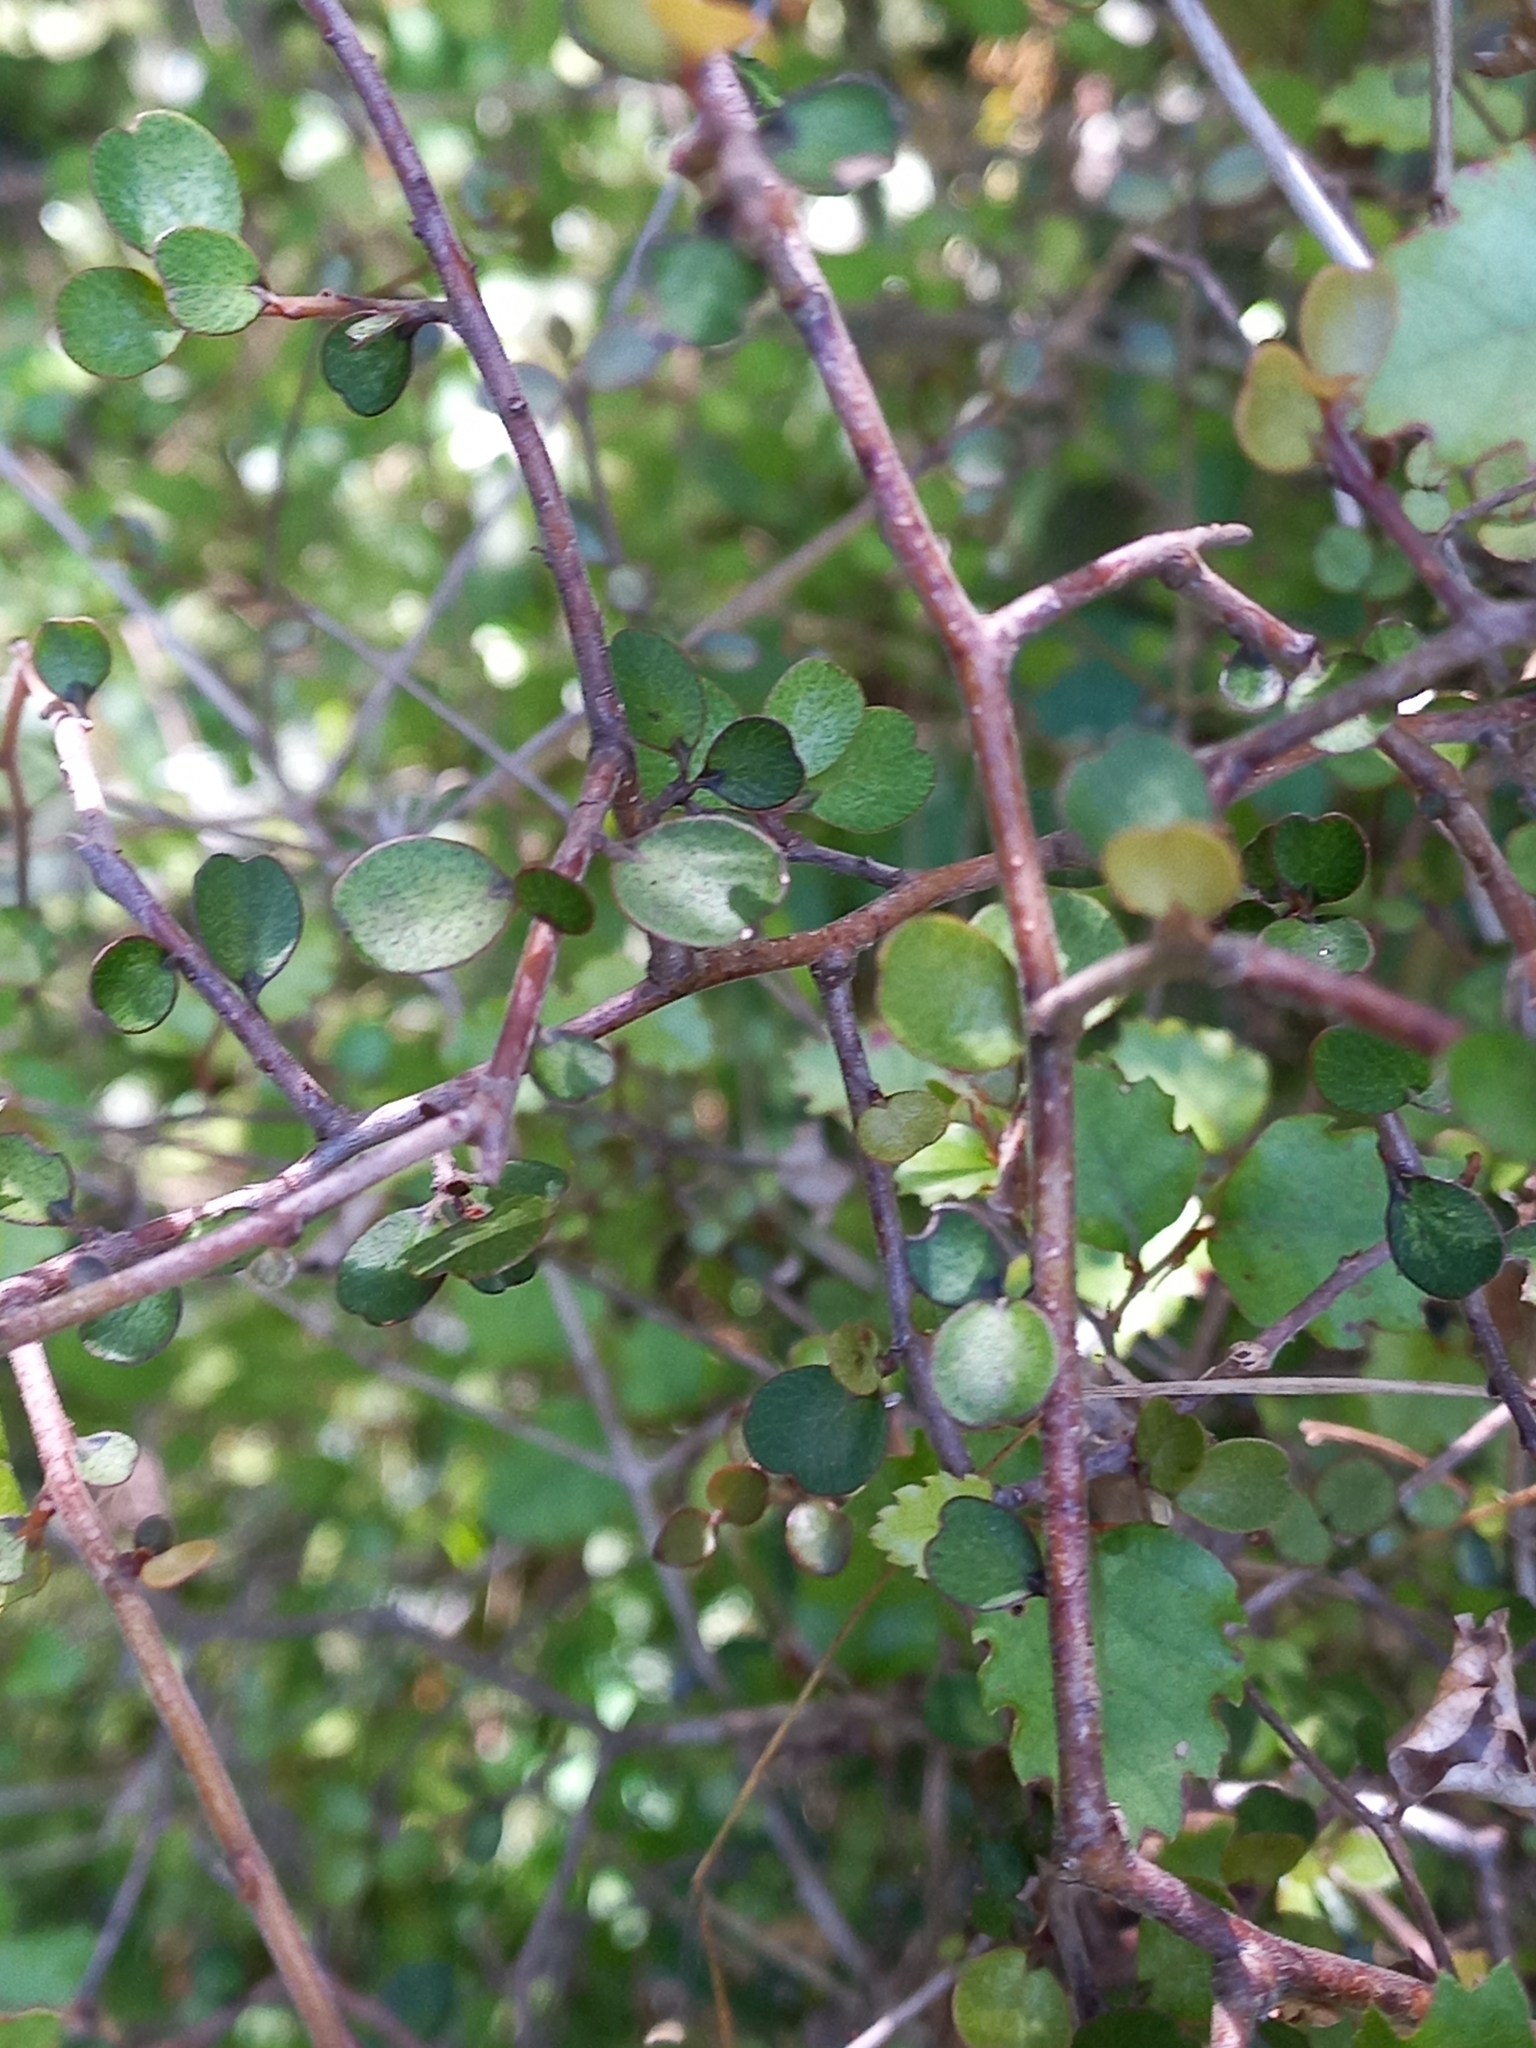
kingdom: Plantae
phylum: Tracheophyta
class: Magnoliopsida
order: Ericales
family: Primulaceae
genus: Myrsine
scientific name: Myrsine divaricata
